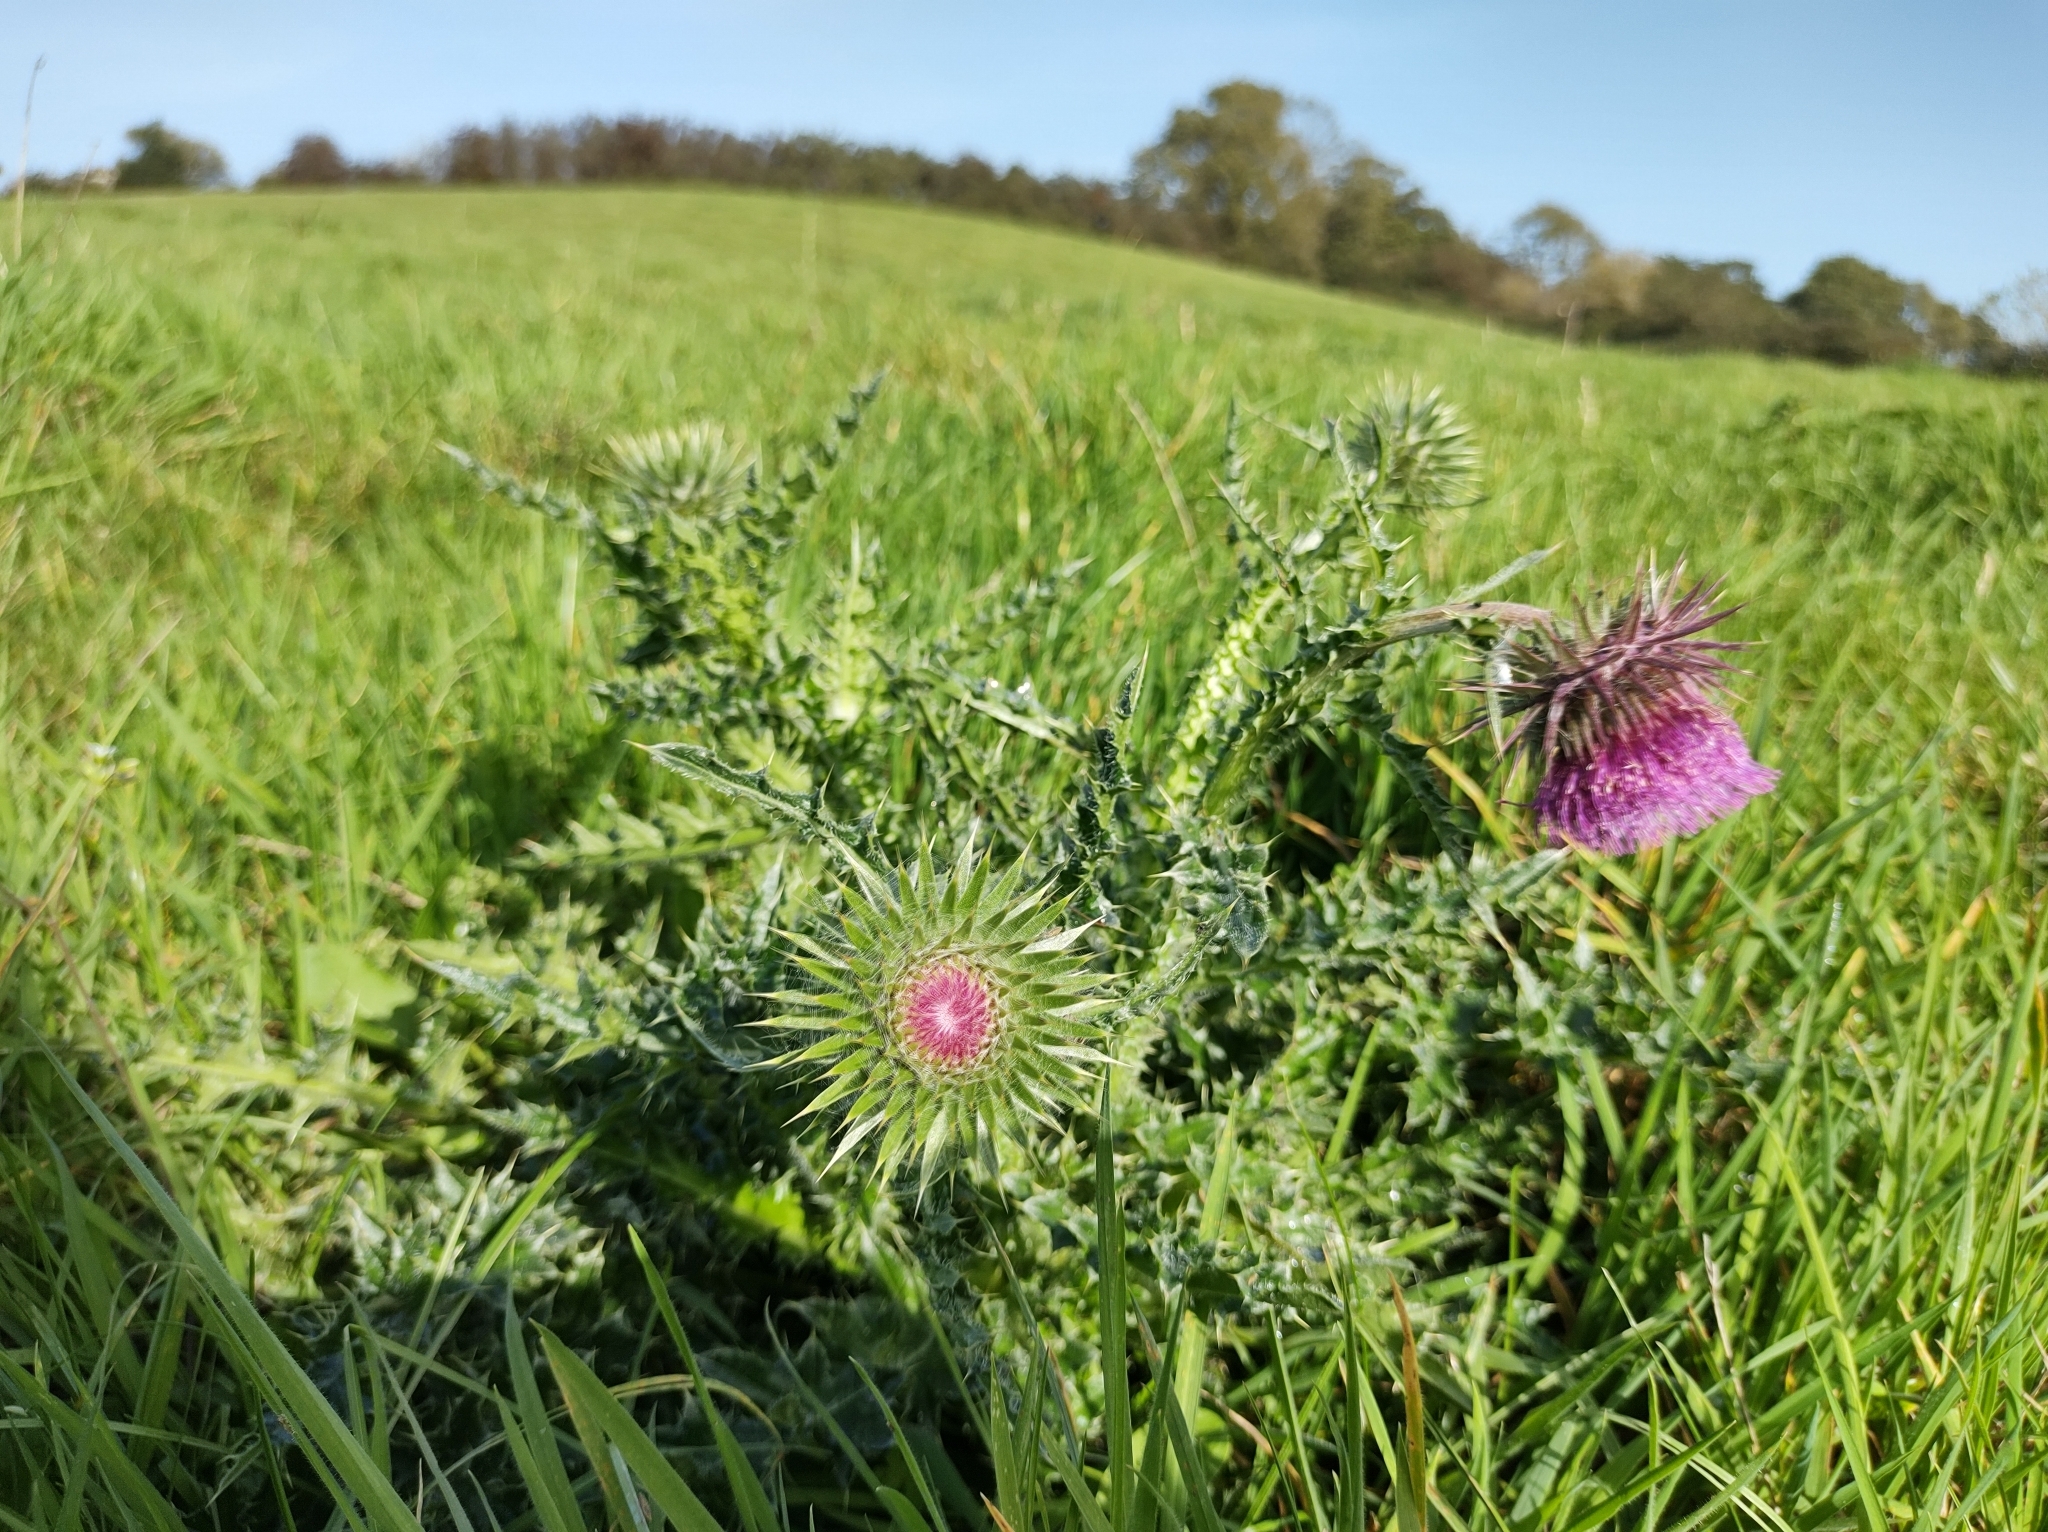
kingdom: Plantae
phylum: Tracheophyta
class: Magnoliopsida
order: Asterales
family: Asteraceae
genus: Carduus
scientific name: Carduus nutans
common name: Musk thistle
